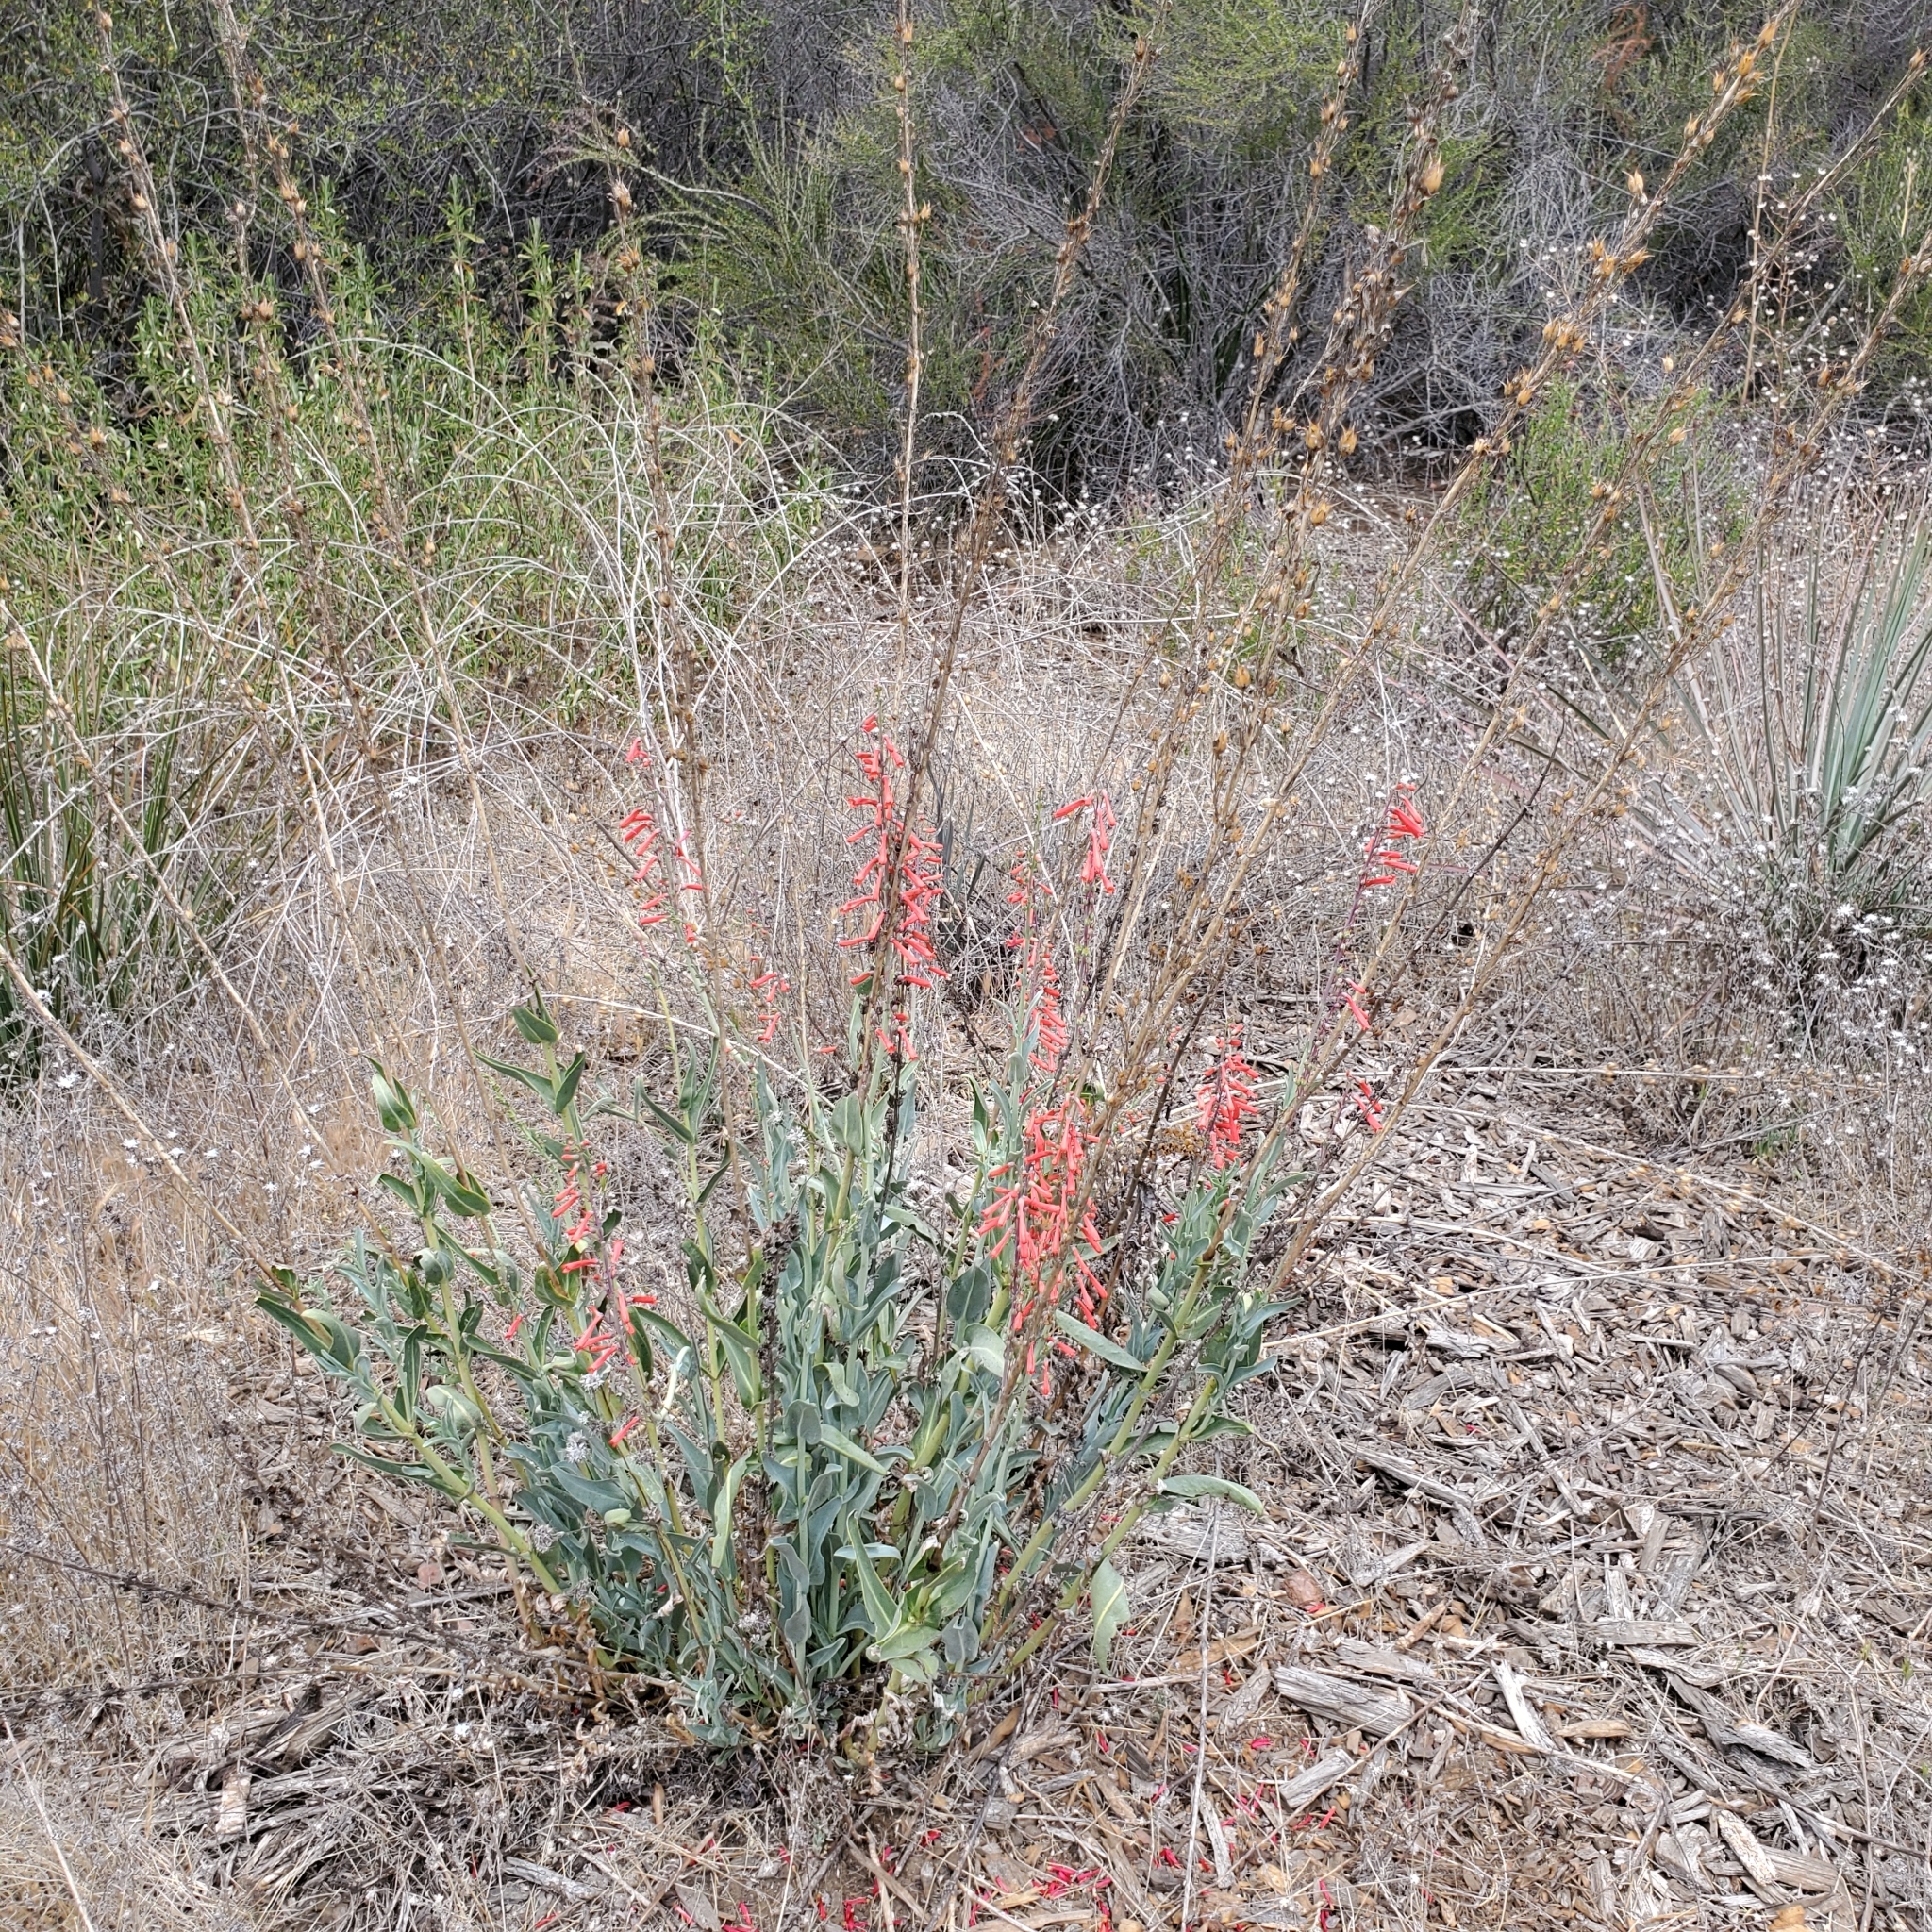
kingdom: Plantae
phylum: Tracheophyta
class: Magnoliopsida
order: Lamiales
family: Plantaginaceae
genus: Penstemon
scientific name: Penstemon centranthifolius
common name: Scarlet bugler
